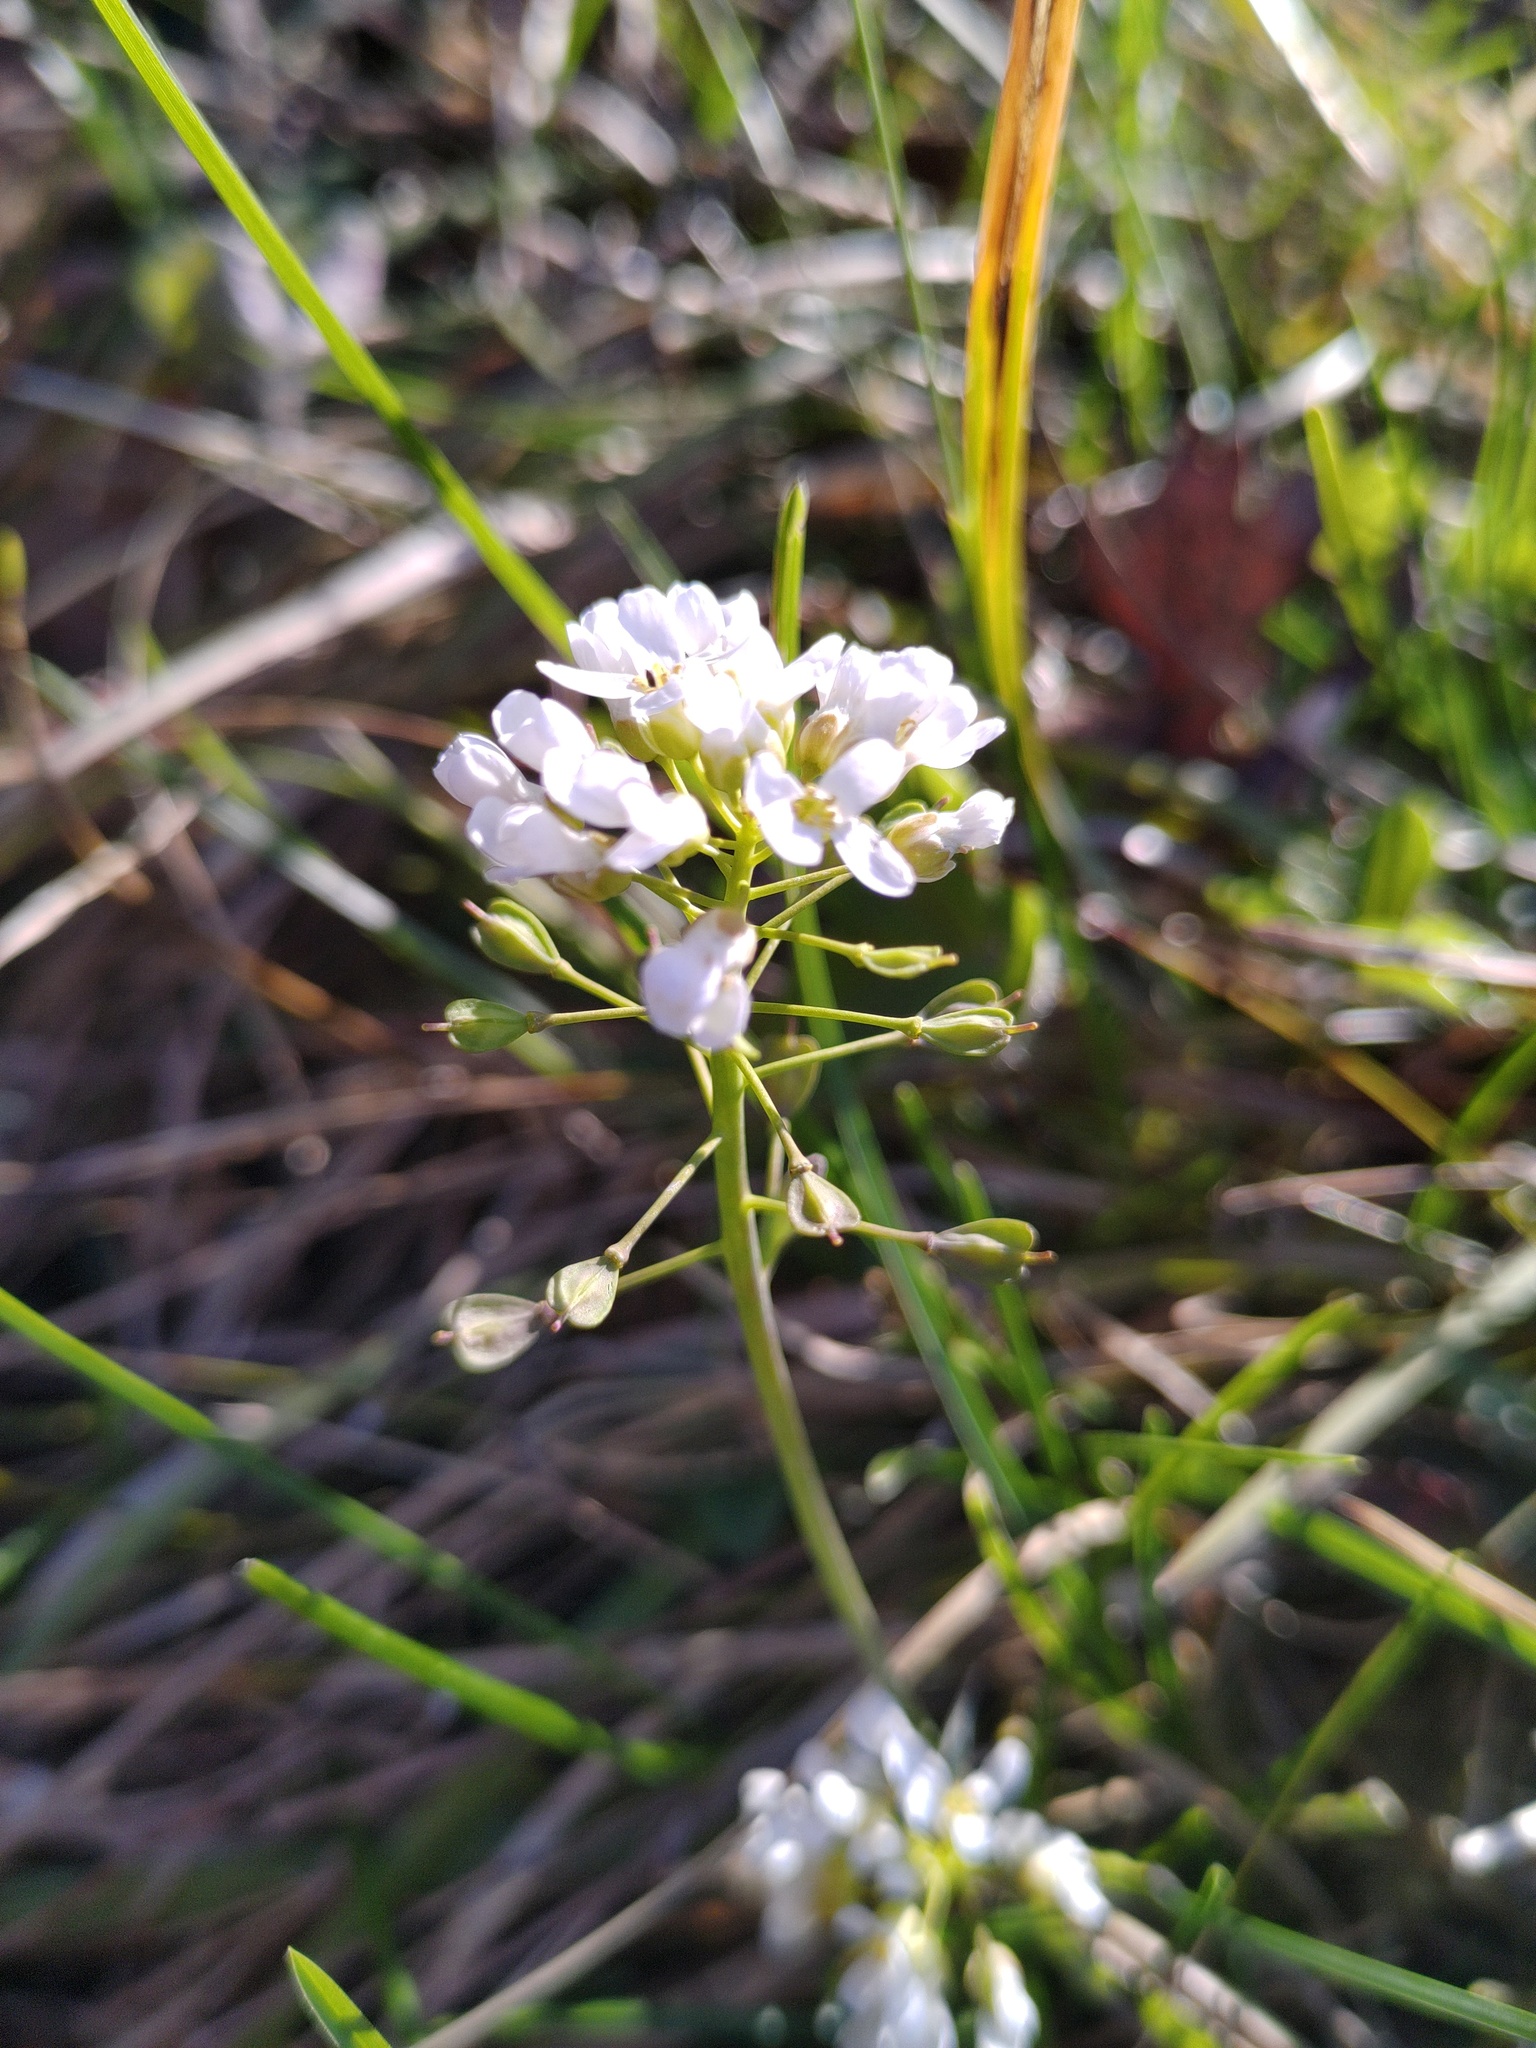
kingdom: Plantae
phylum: Tracheophyta
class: Magnoliopsida
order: Brassicales
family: Brassicaceae
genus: Noccaea
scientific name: Noccaea montana
